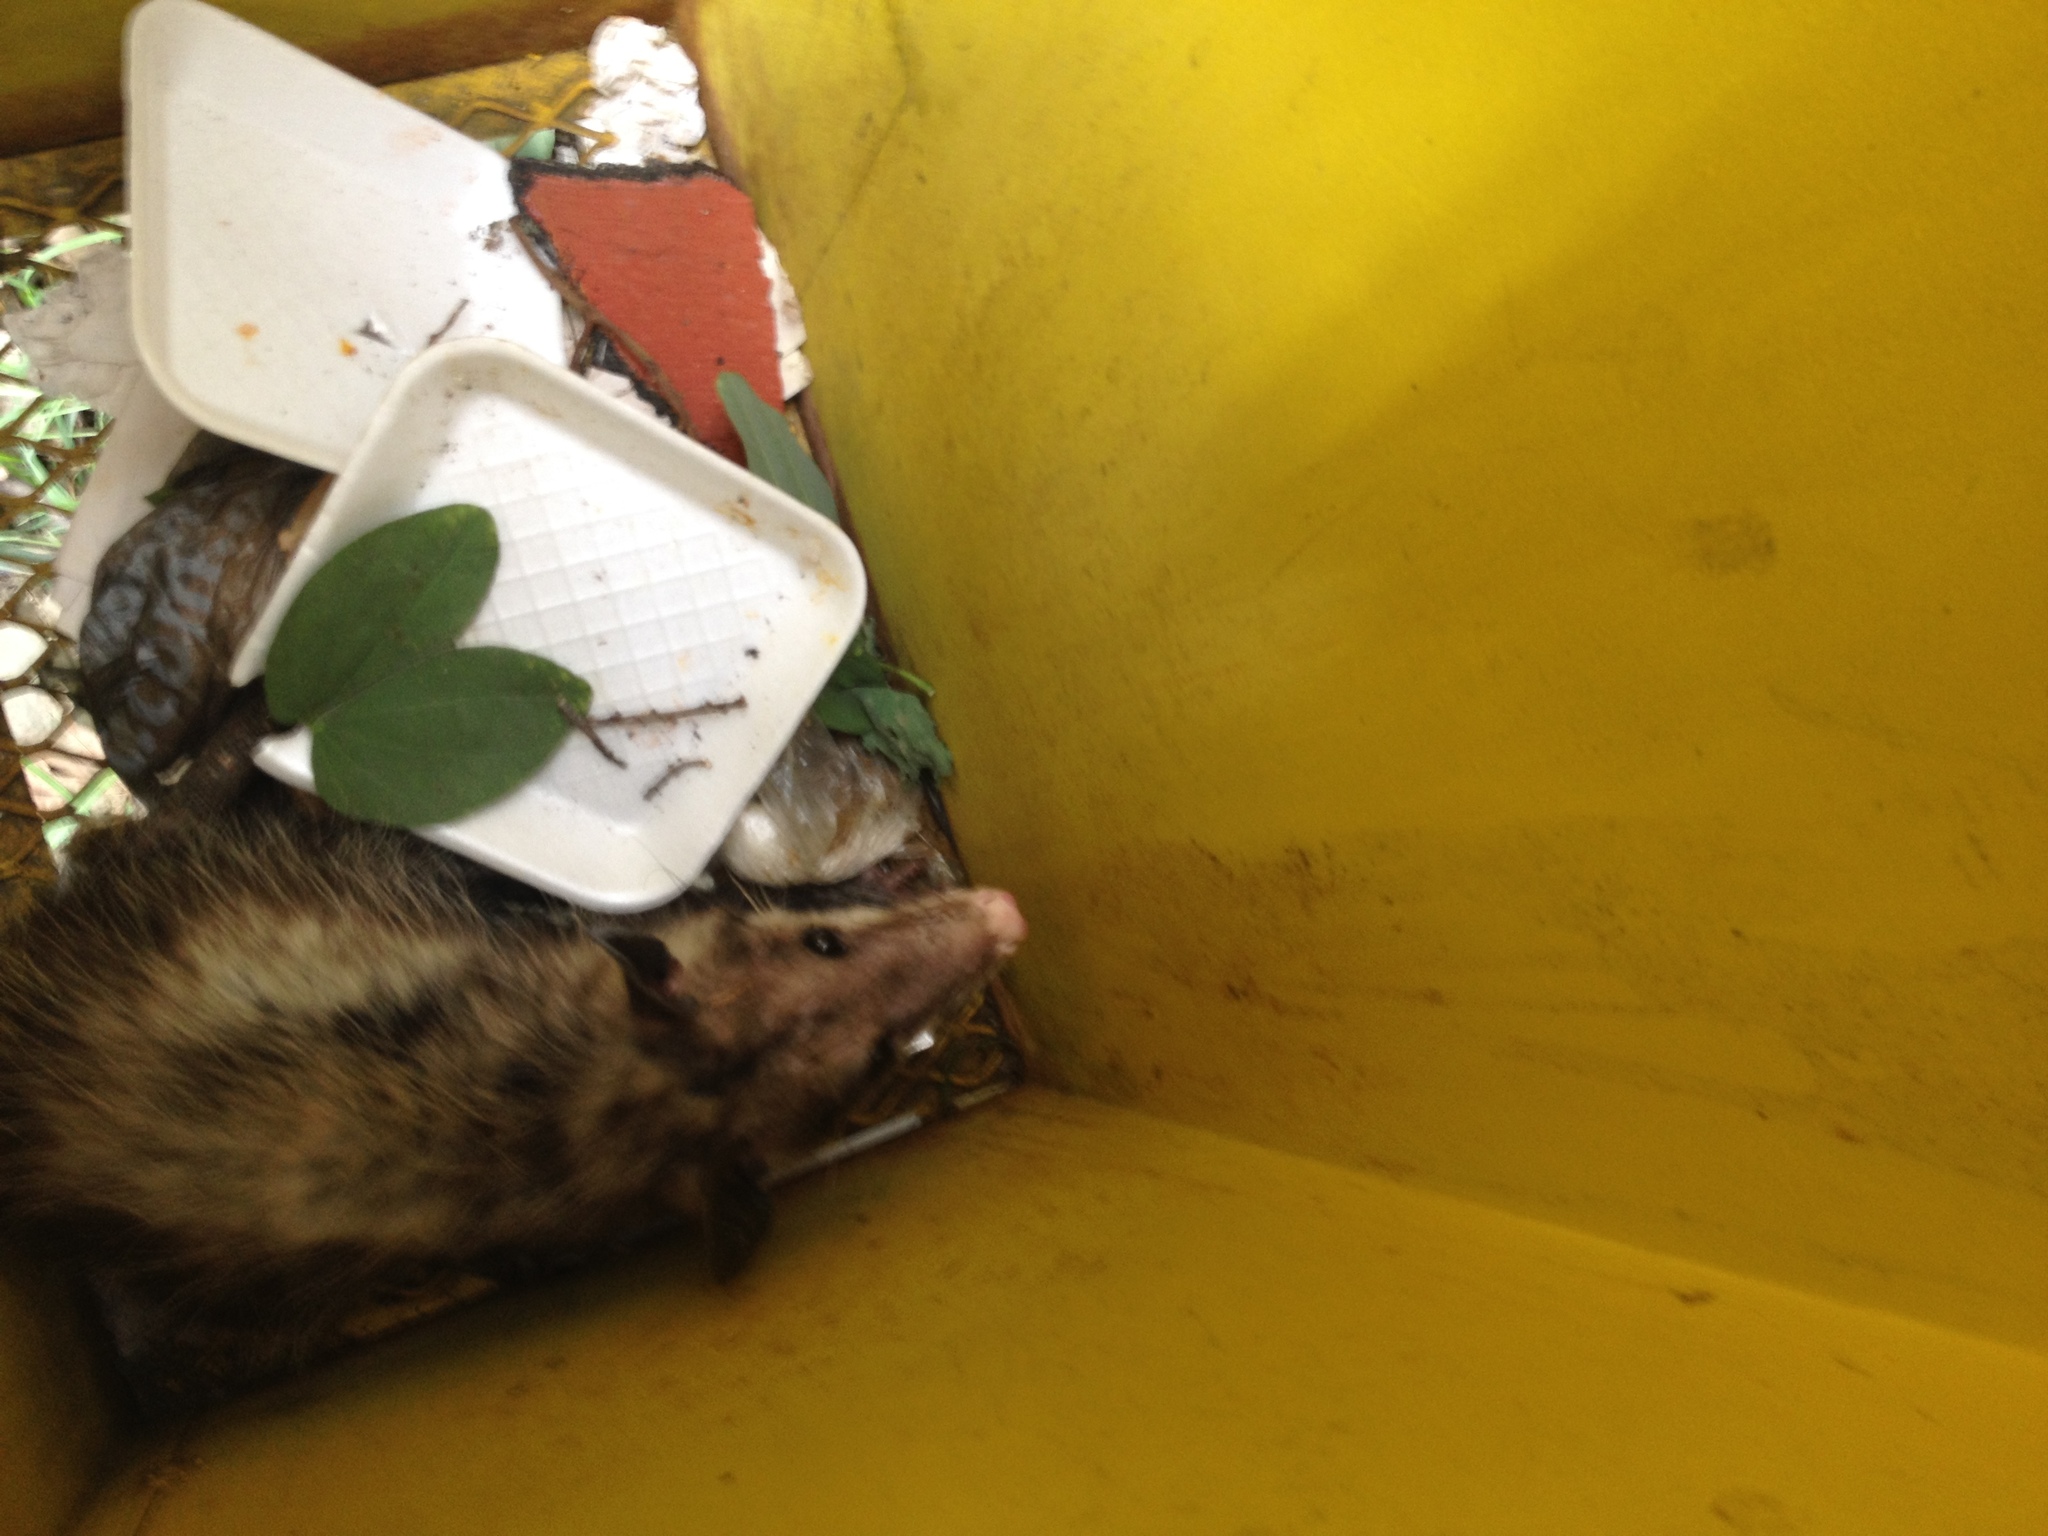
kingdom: Animalia
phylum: Chordata
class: Mammalia
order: Didelphimorphia
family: Didelphidae
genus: Didelphis
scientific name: Didelphis virginiana
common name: Virginia opossum
